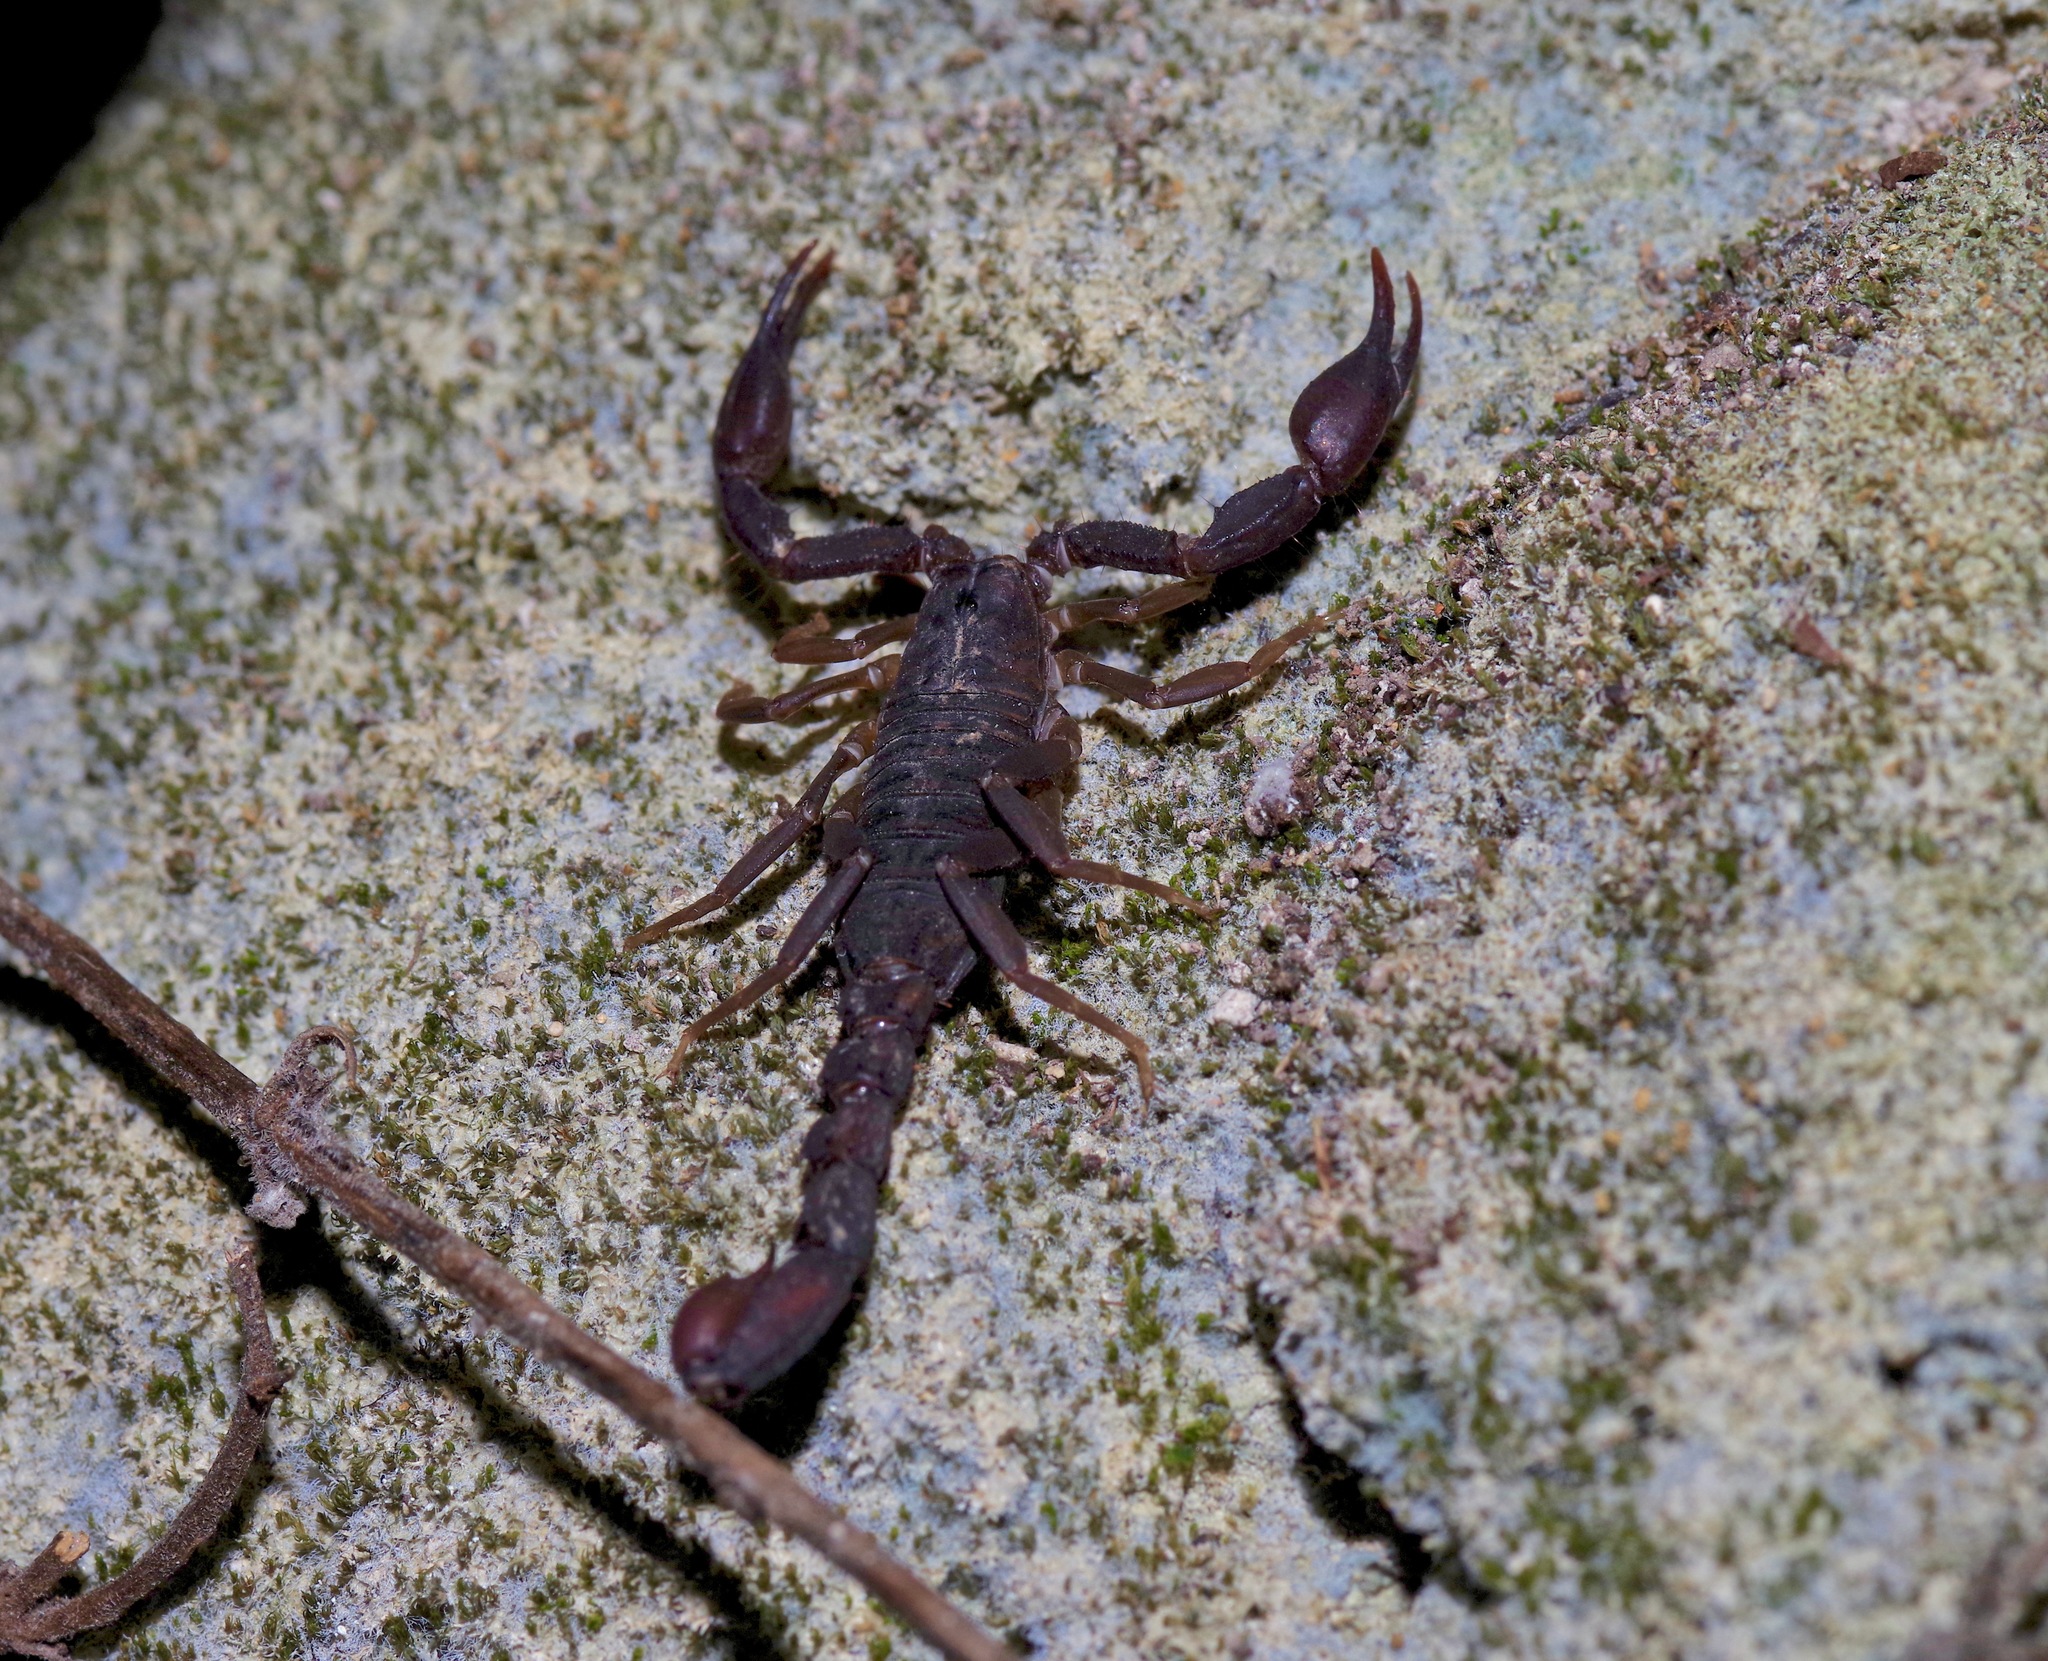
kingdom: Animalia
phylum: Arthropoda
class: Arachnida
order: Scorpiones
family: Vaejovidae
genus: Pseudouroctonus
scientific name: Pseudouroctonus reddelli
